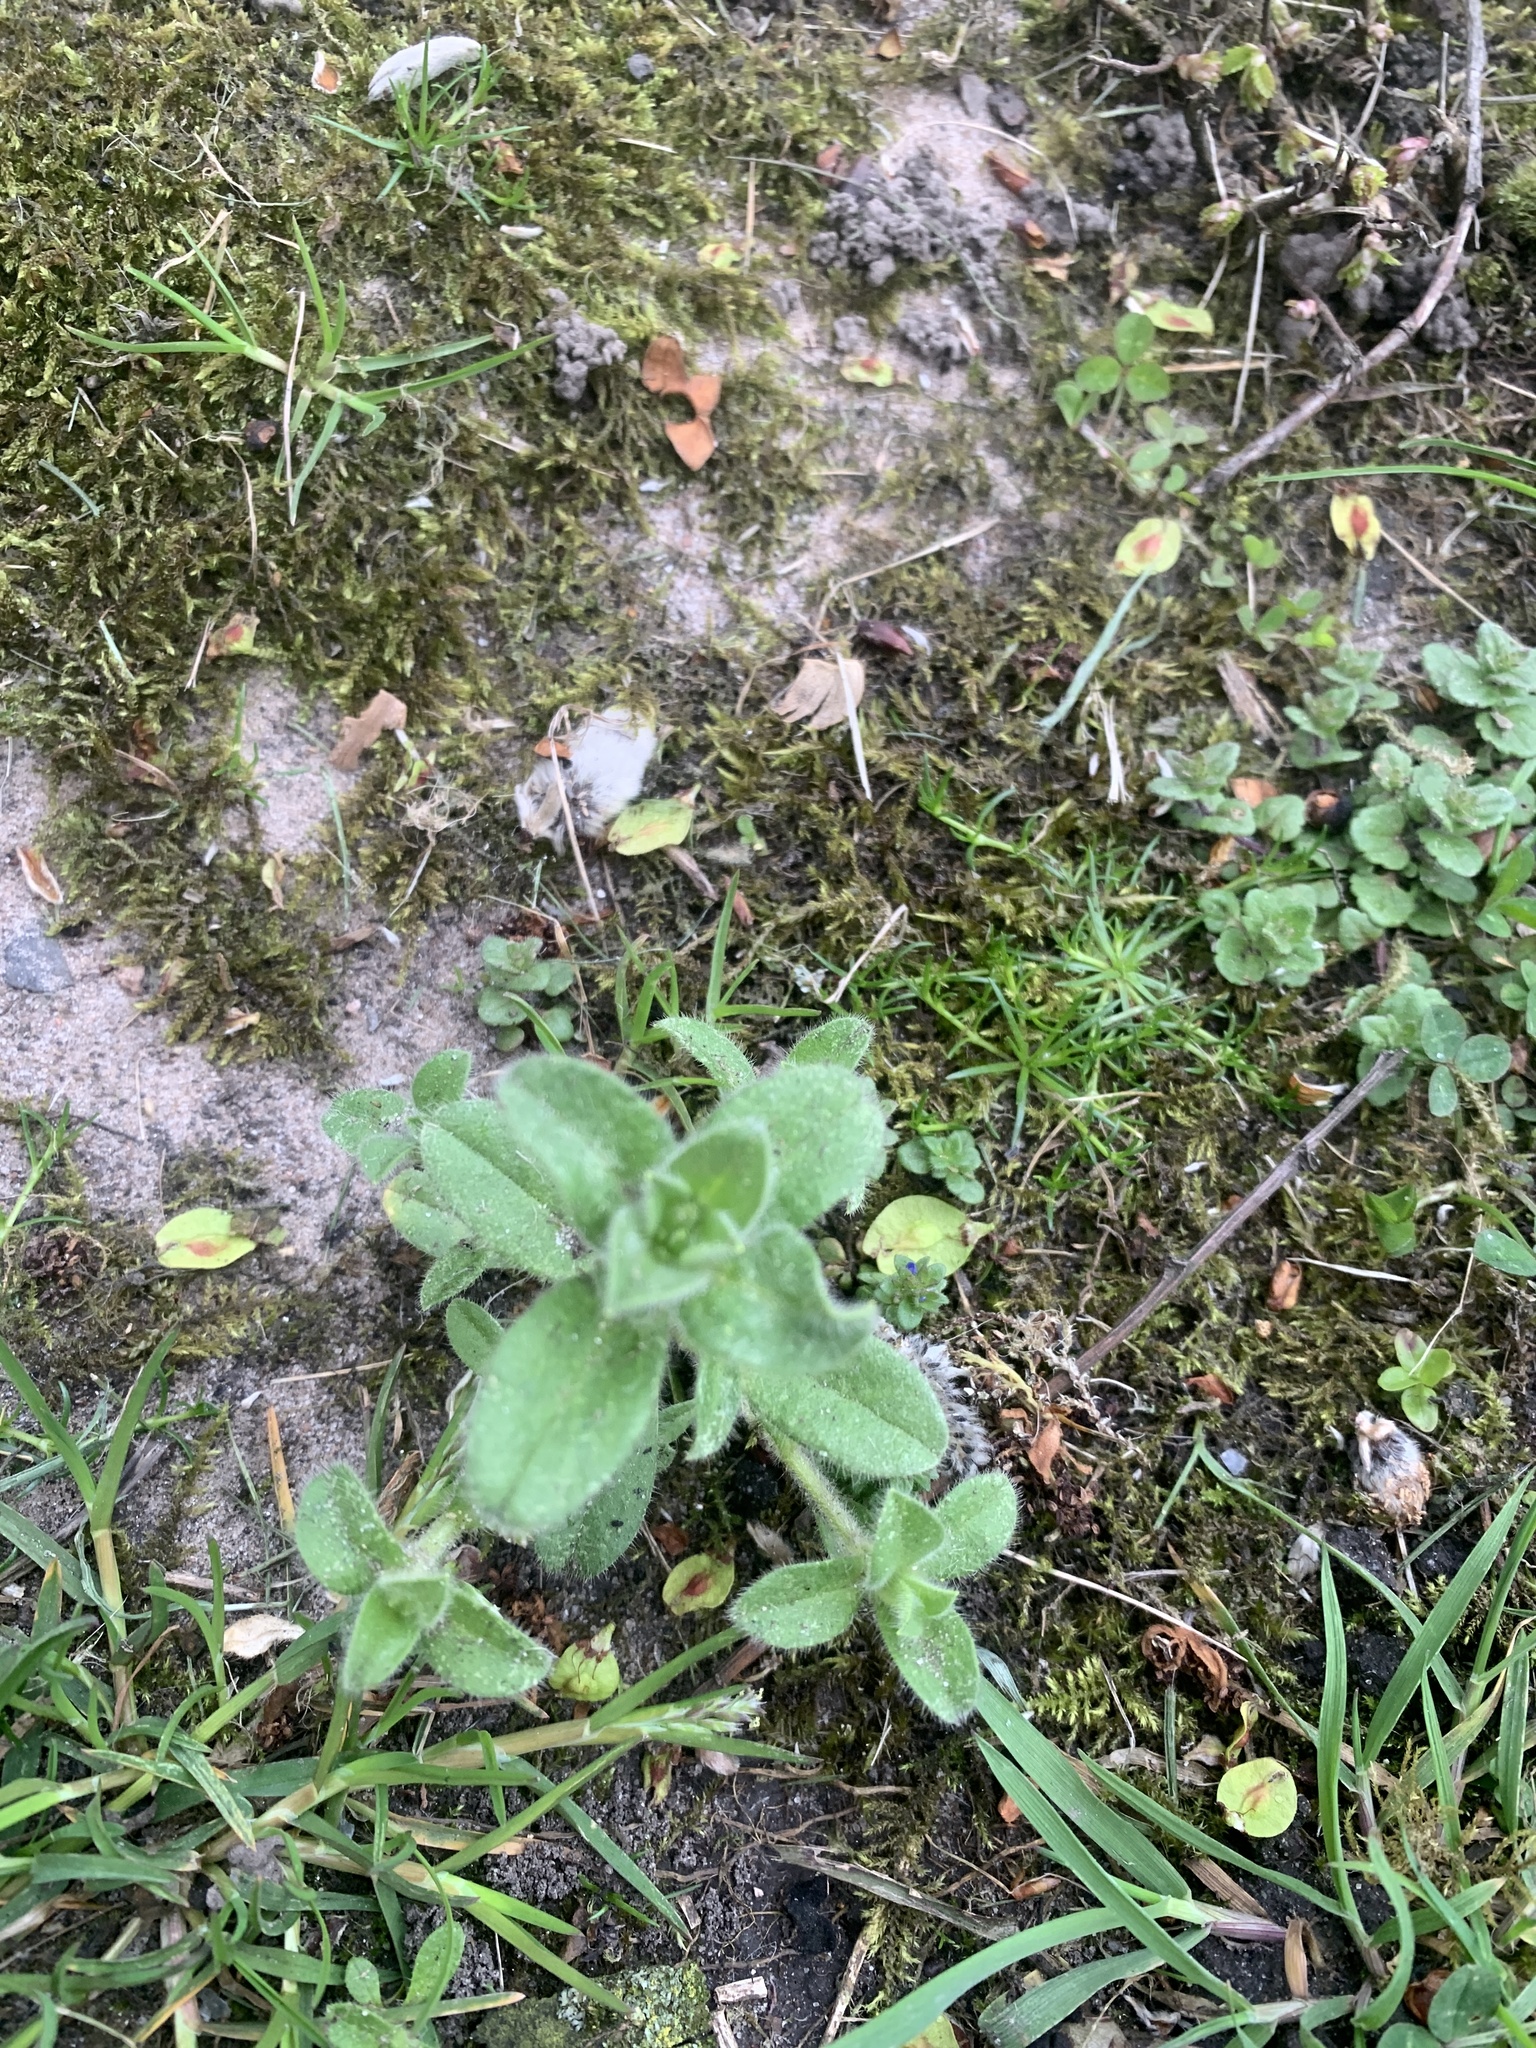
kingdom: Plantae
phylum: Tracheophyta
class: Magnoliopsida
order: Caryophyllales
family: Caryophyllaceae
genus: Cerastium
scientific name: Cerastium glomeratum
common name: Sticky chickweed
